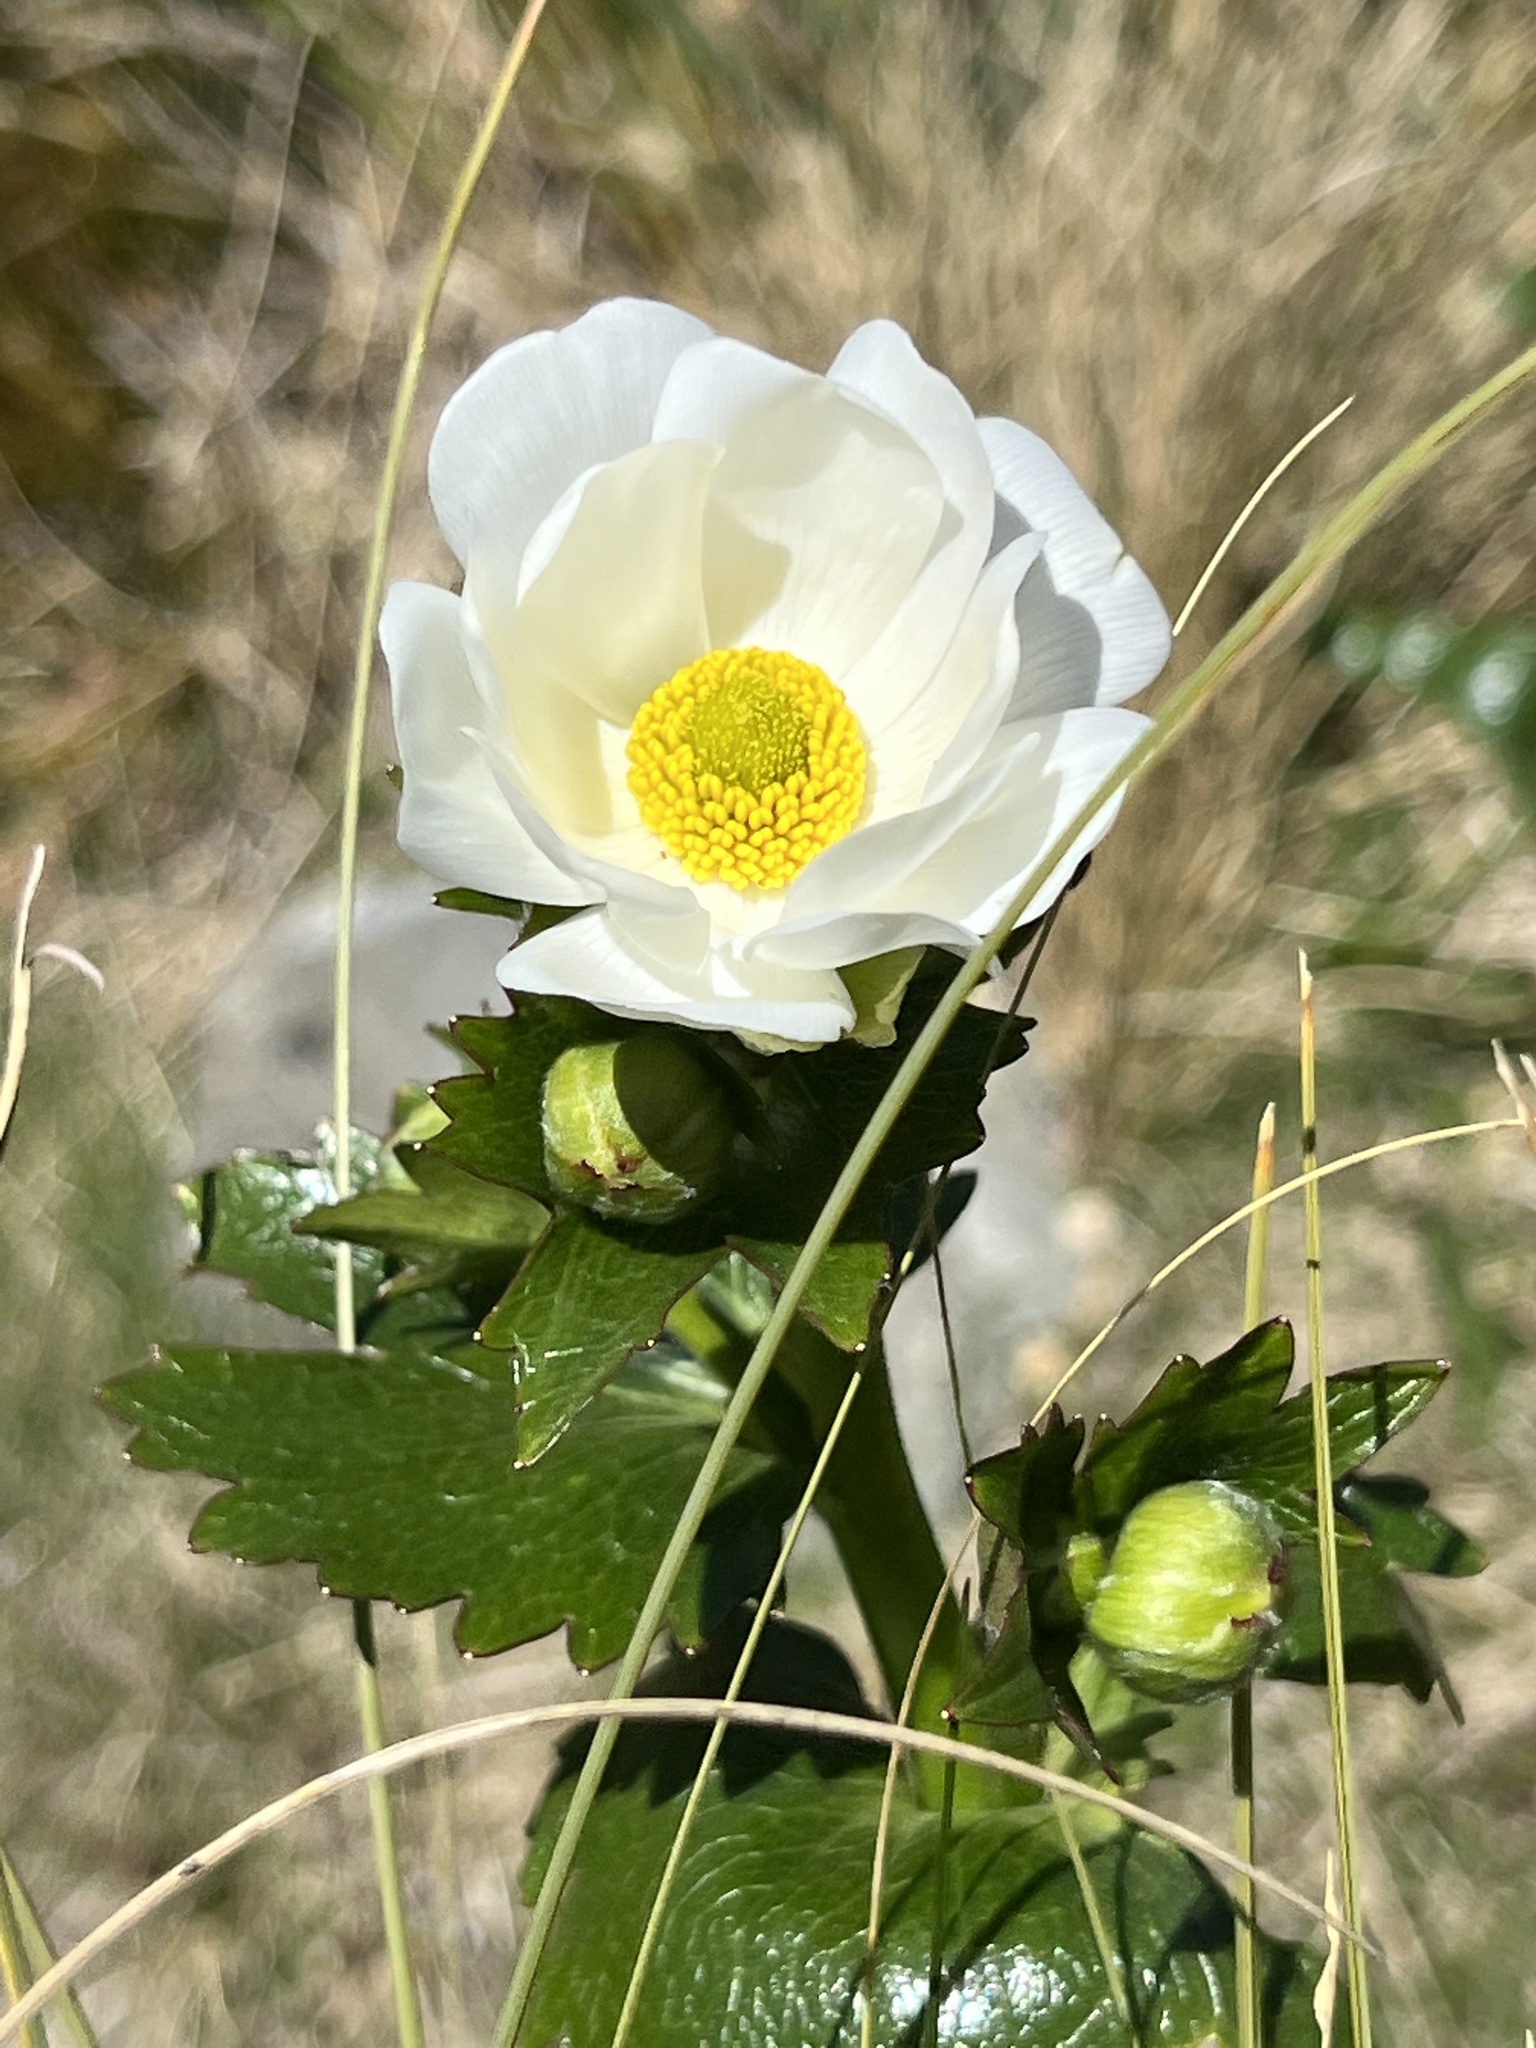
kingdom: Plantae
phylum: Tracheophyta
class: Magnoliopsida
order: Ranunculales
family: Ranunculaceae
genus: Ranunculus
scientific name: Ranunculus lyallii
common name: Mountain-lily
